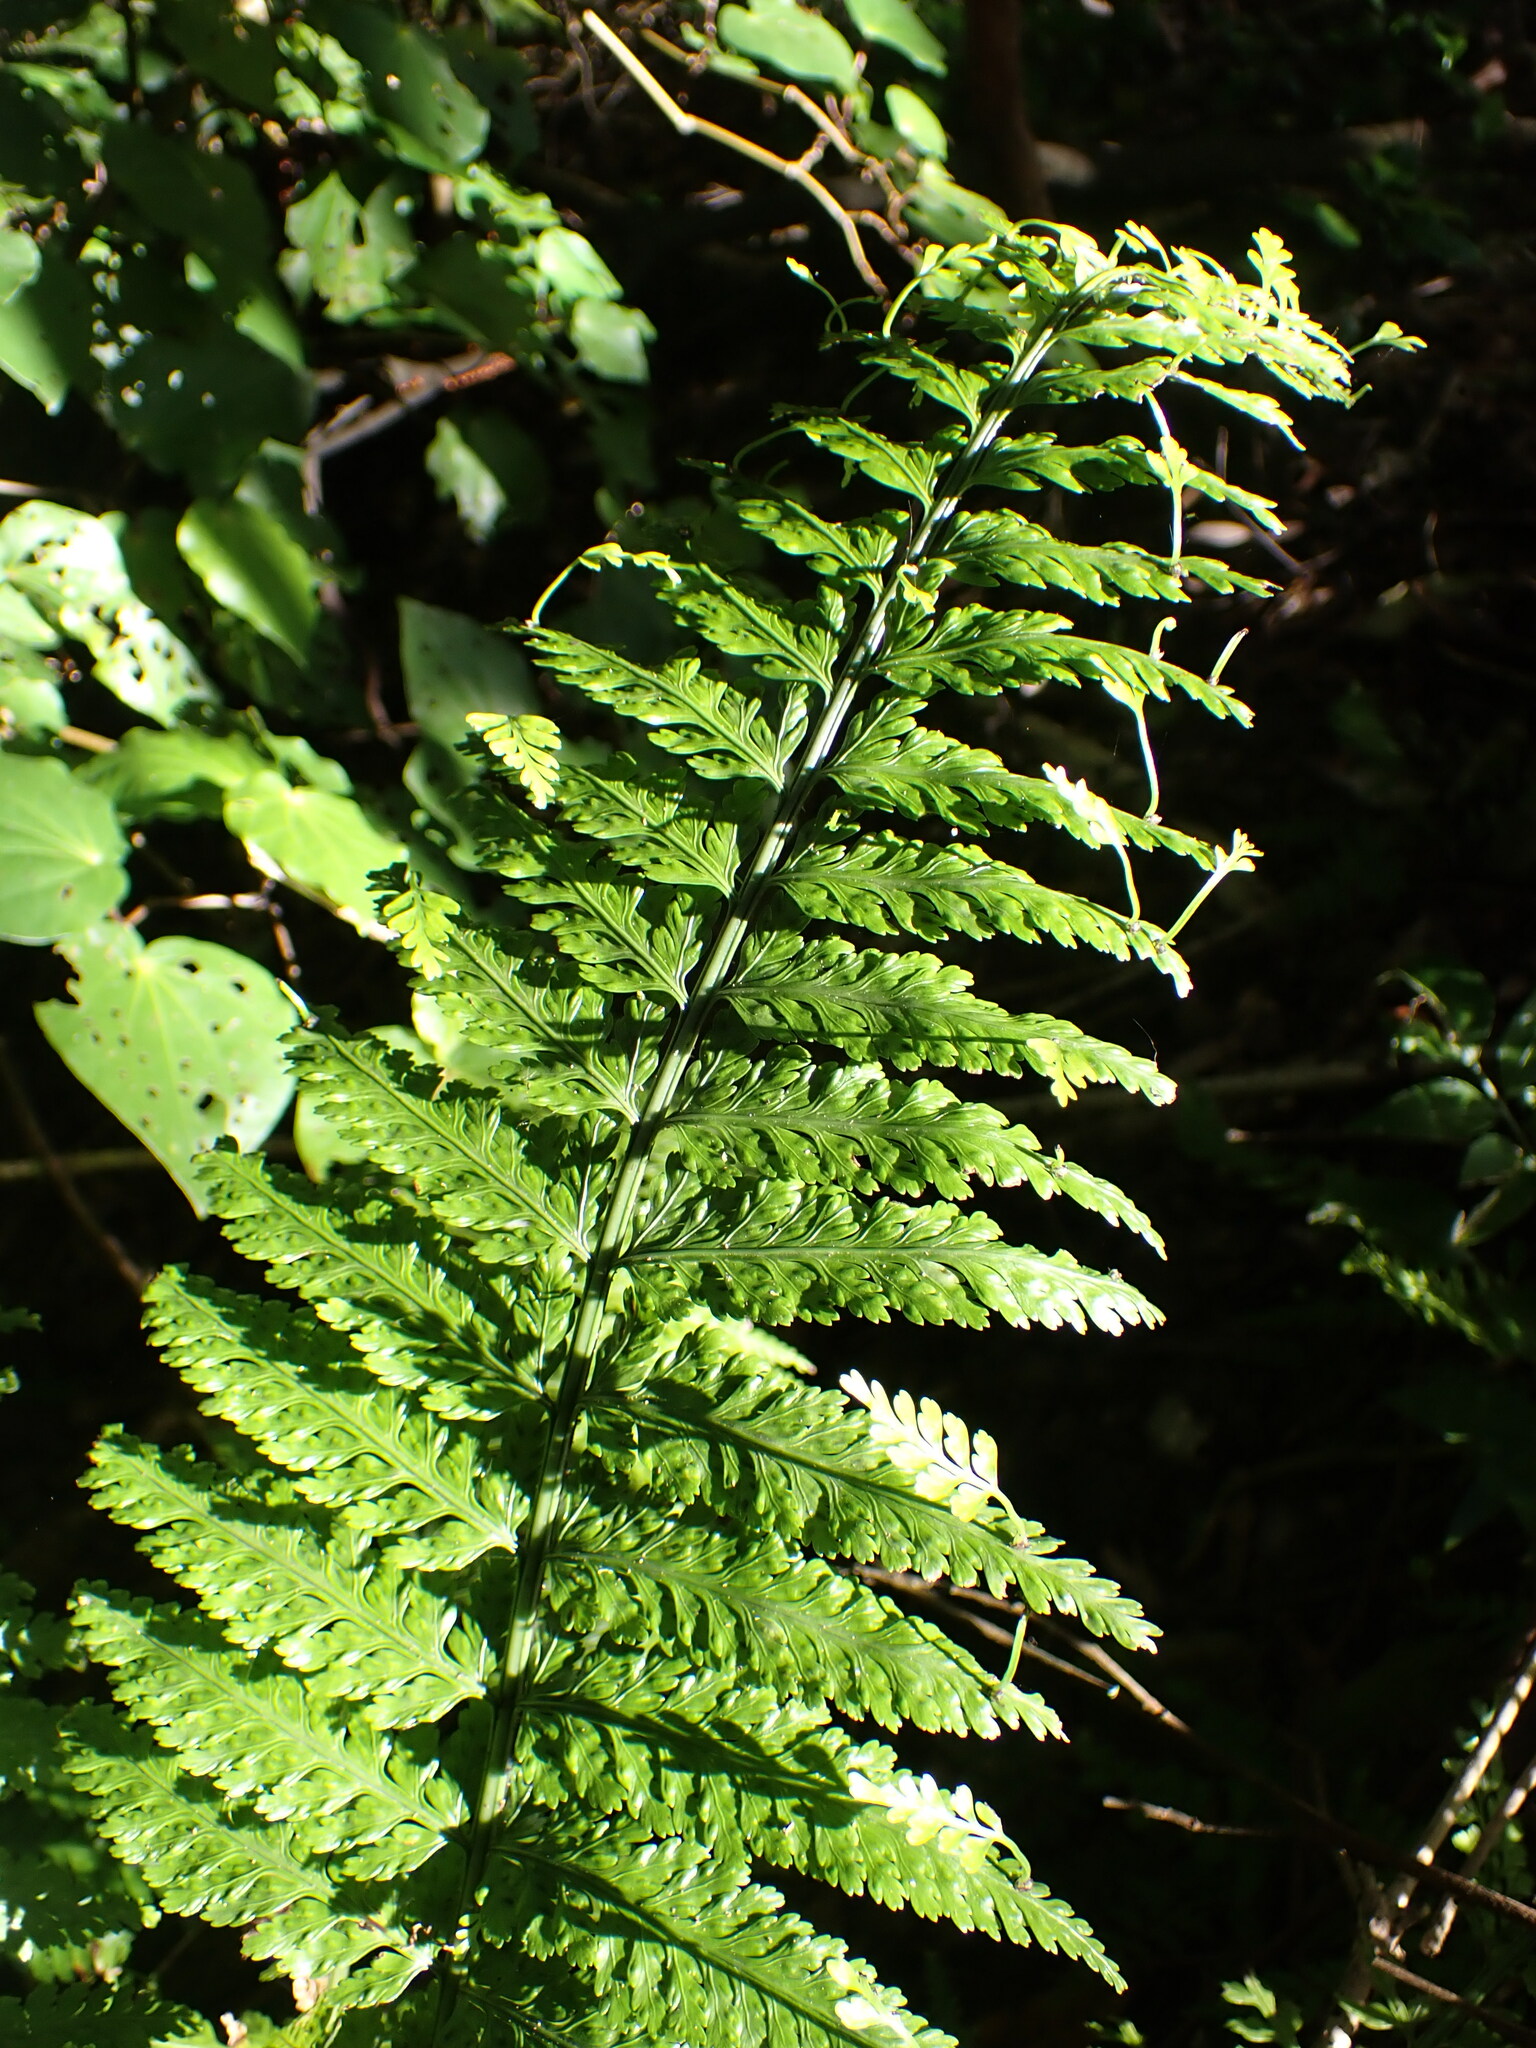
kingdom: Plantae
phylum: Tracheophyta
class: Polypodiopsida
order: Polypodiales
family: Aspleniaceae
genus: Asplenium
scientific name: Asplenium bulbiferum
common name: Mother fern
